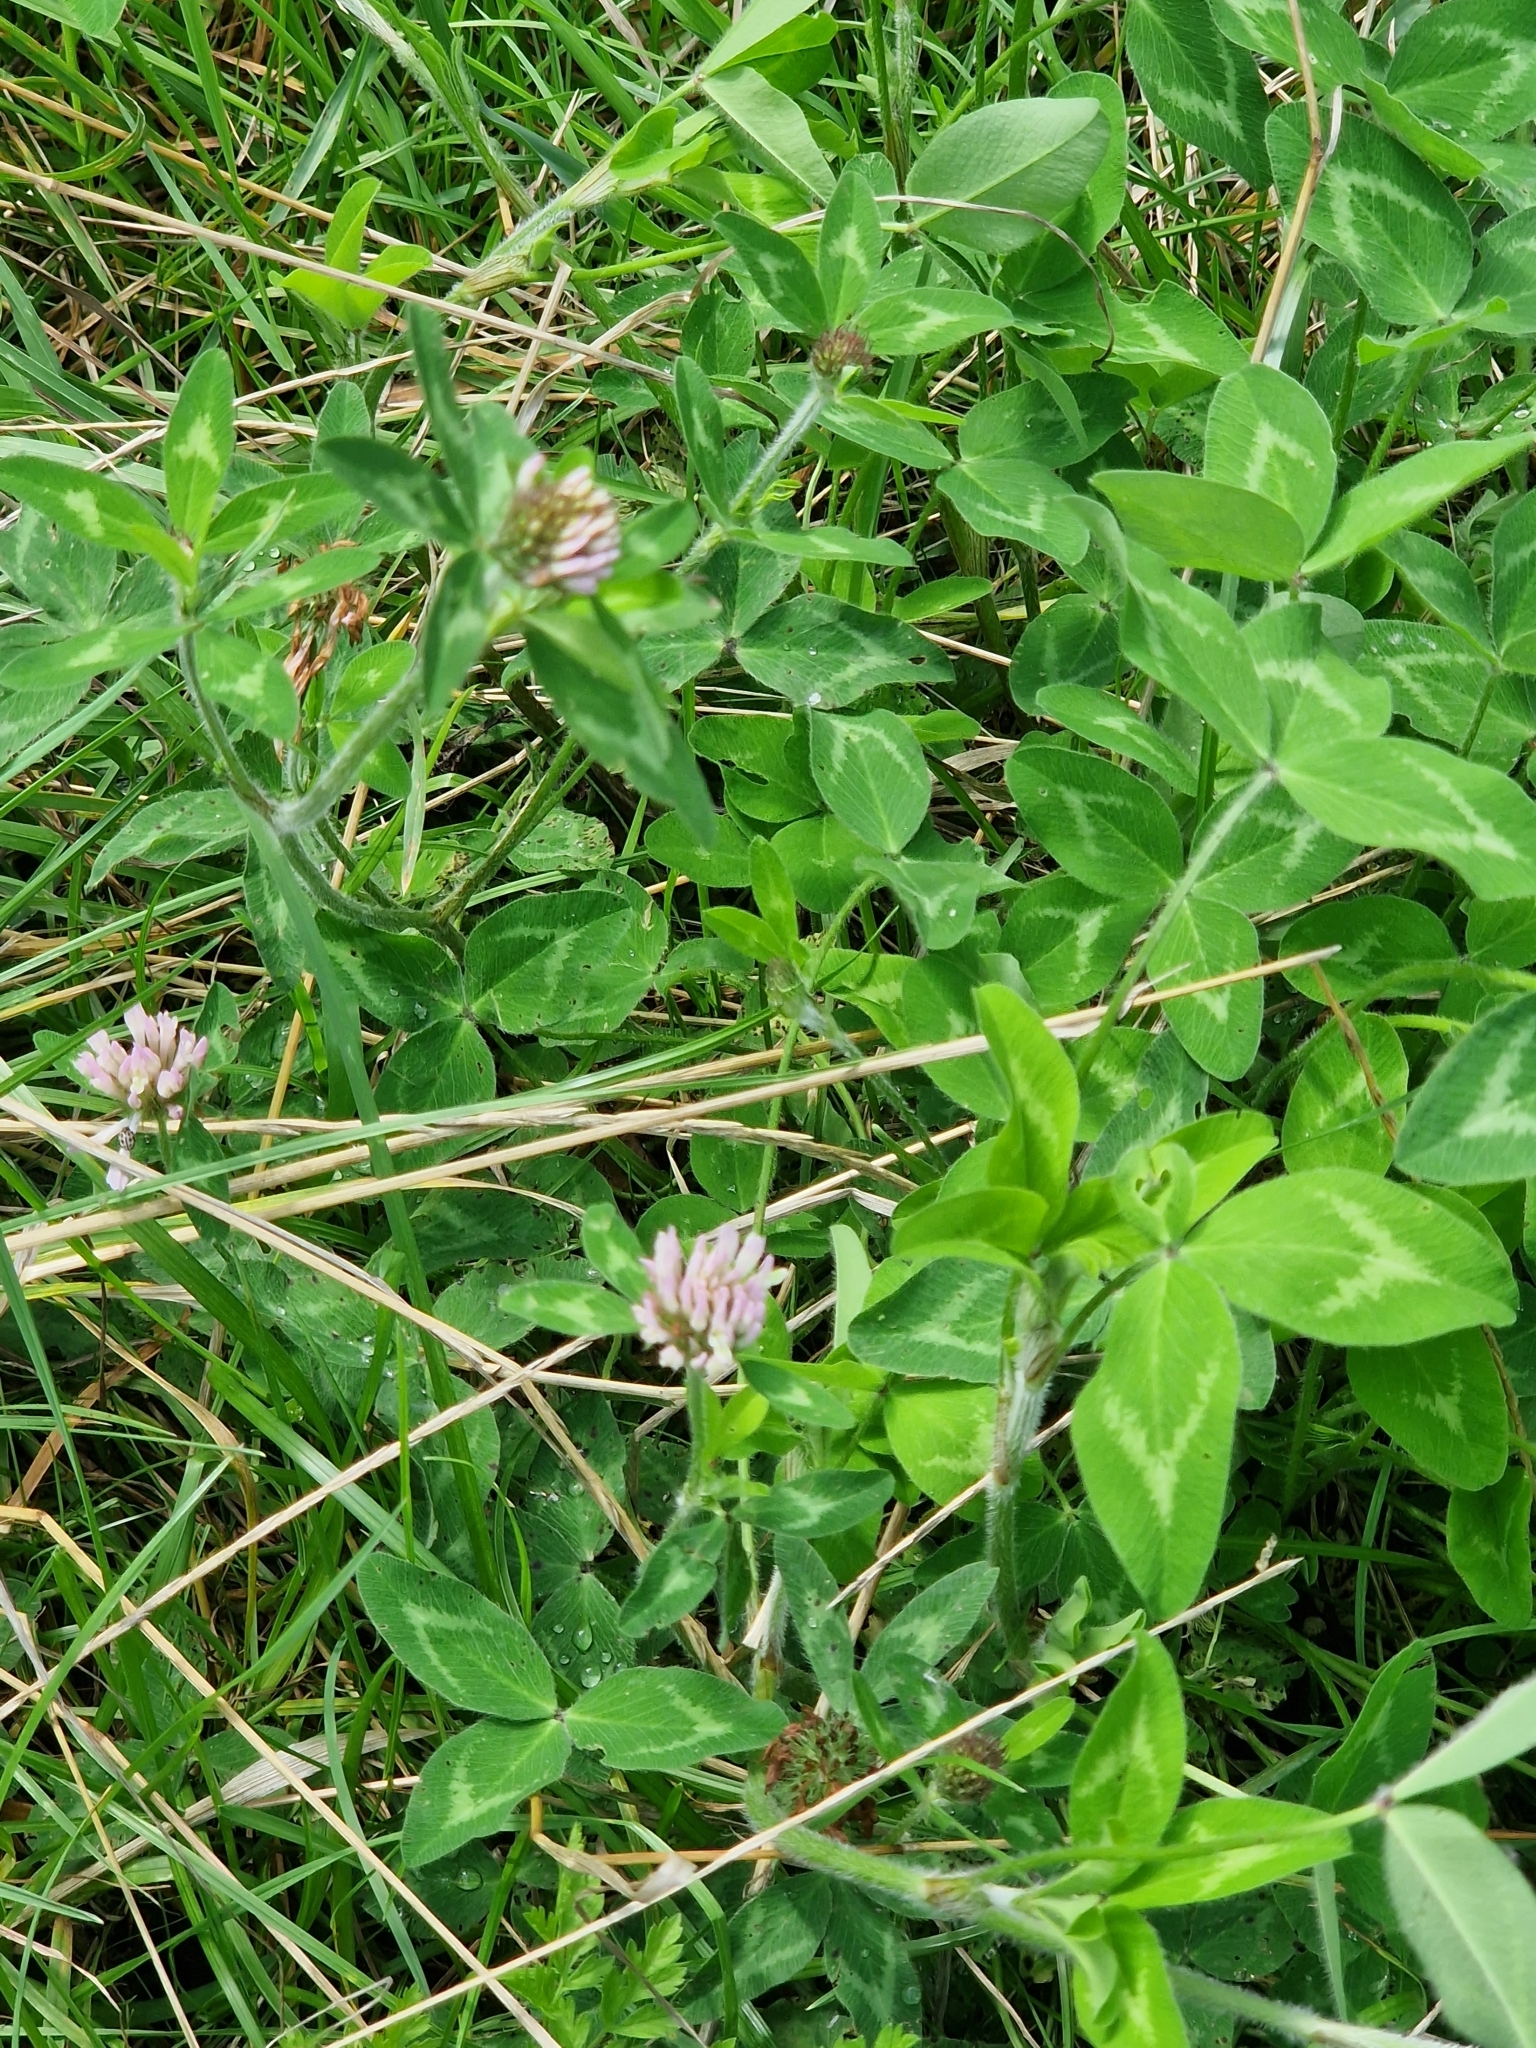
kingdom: Plantae
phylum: Tracheophyta
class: Magnoliopsida
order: Fabales
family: Fabaceae
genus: Trifolium
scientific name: Trifolium pratense
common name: Red clover
